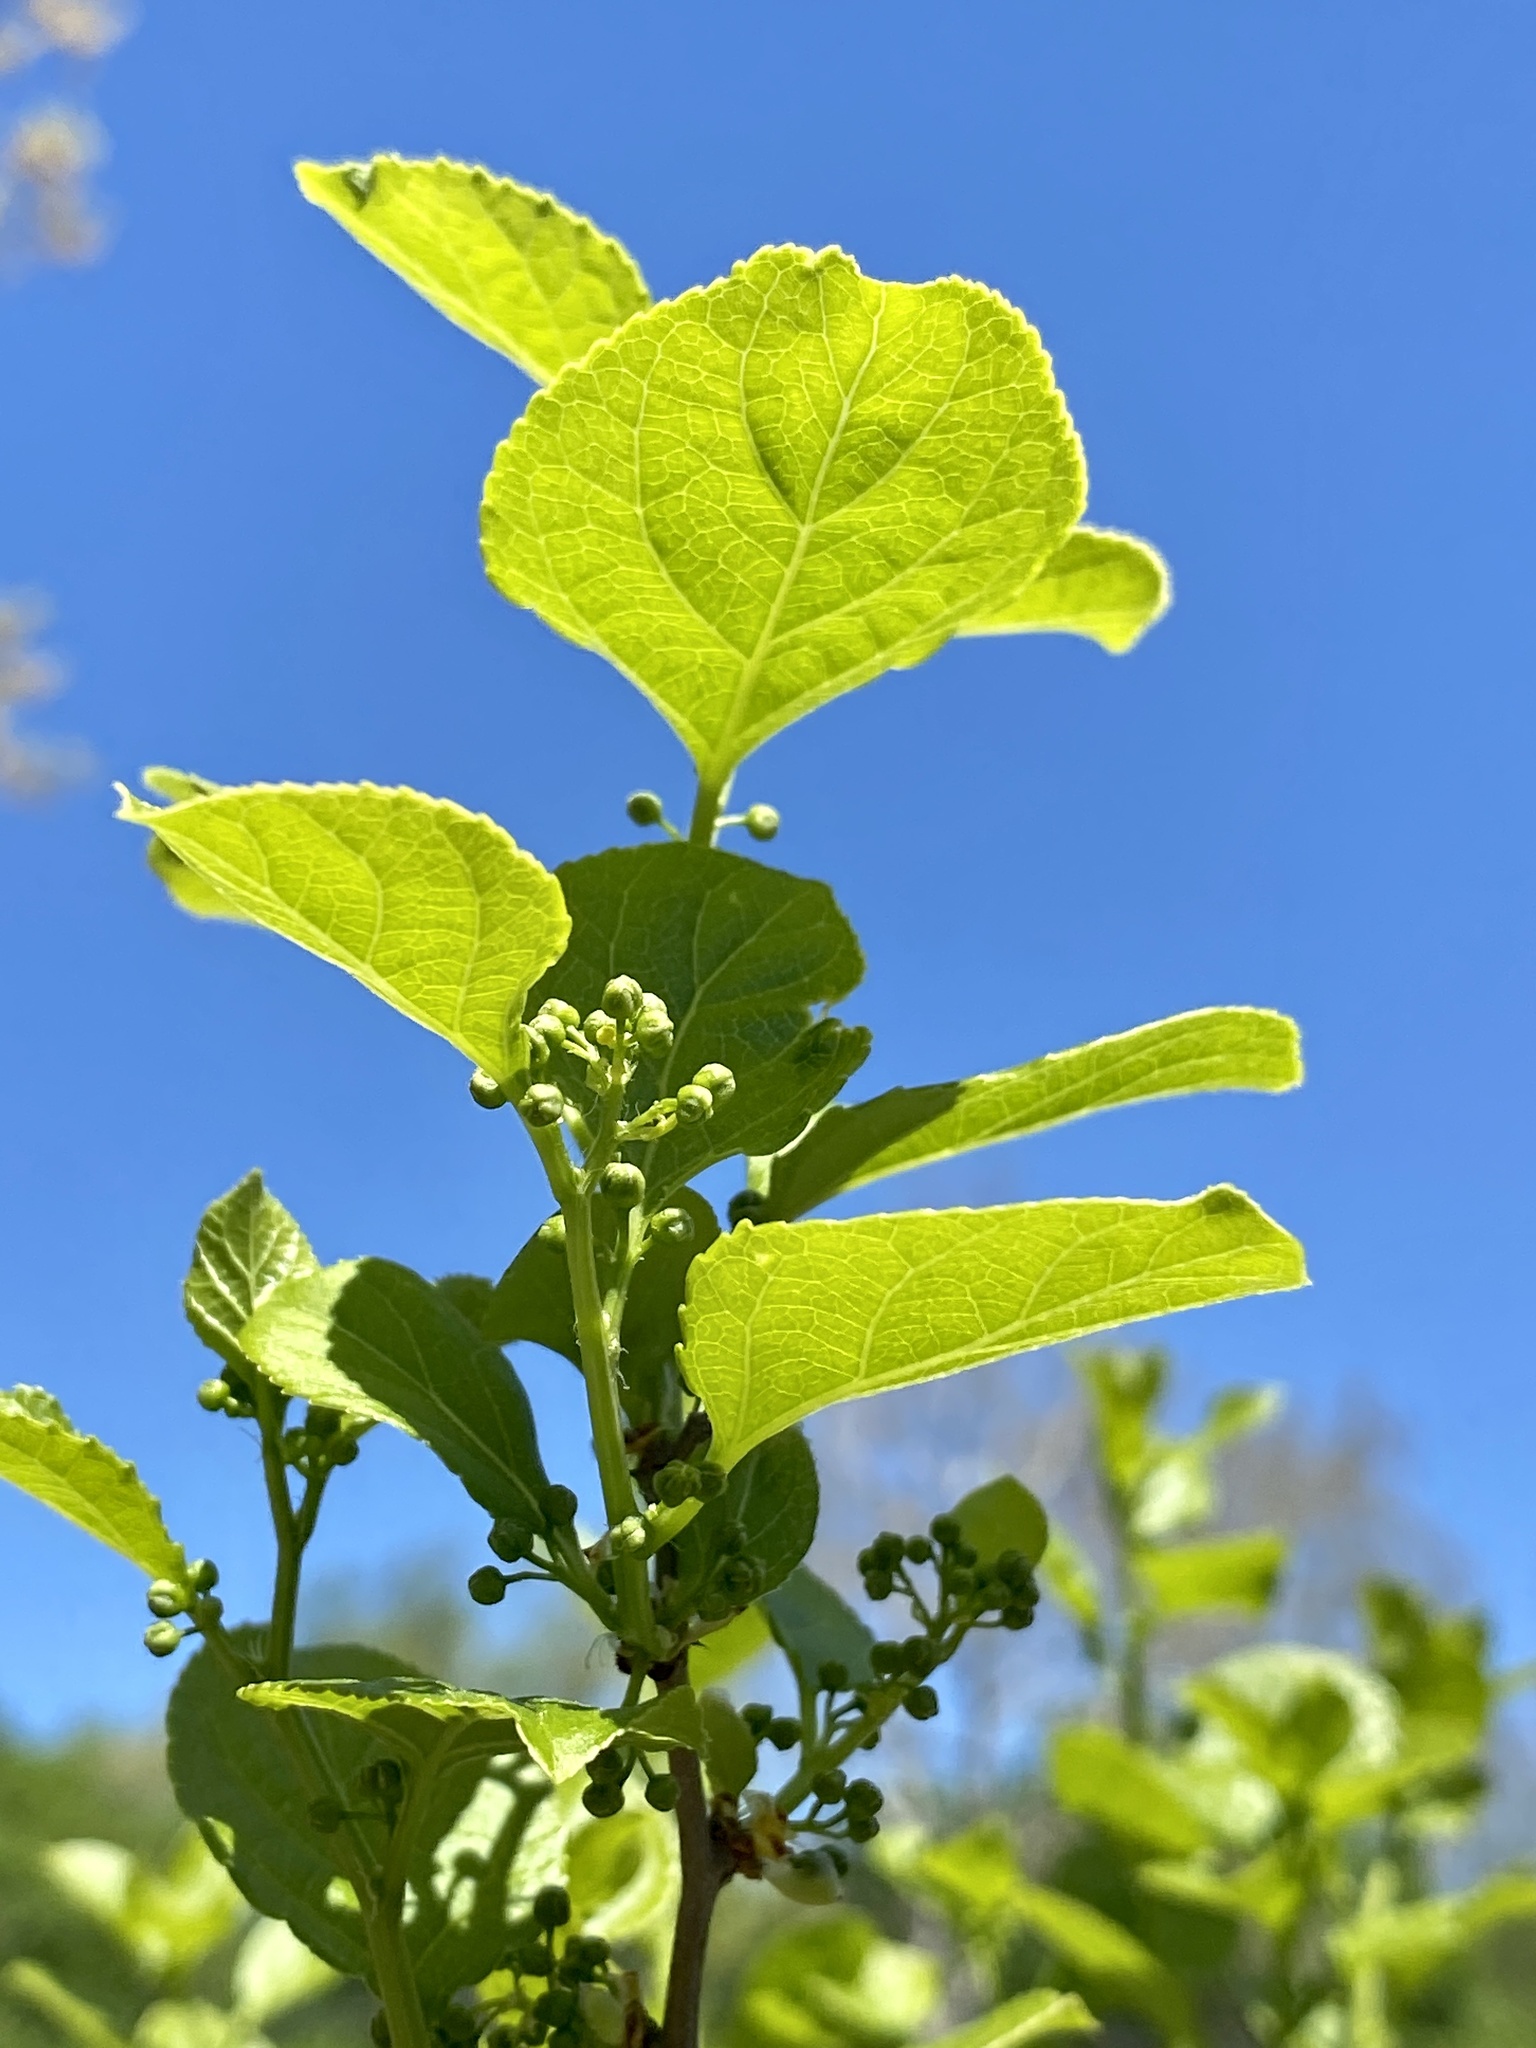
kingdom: Plantae
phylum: Tracheophyta
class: Magnoliopsida
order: Celastrales
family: Celastraceae
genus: Celastrus
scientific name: Celastrus orbiculatus
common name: Oriental bittersweet
